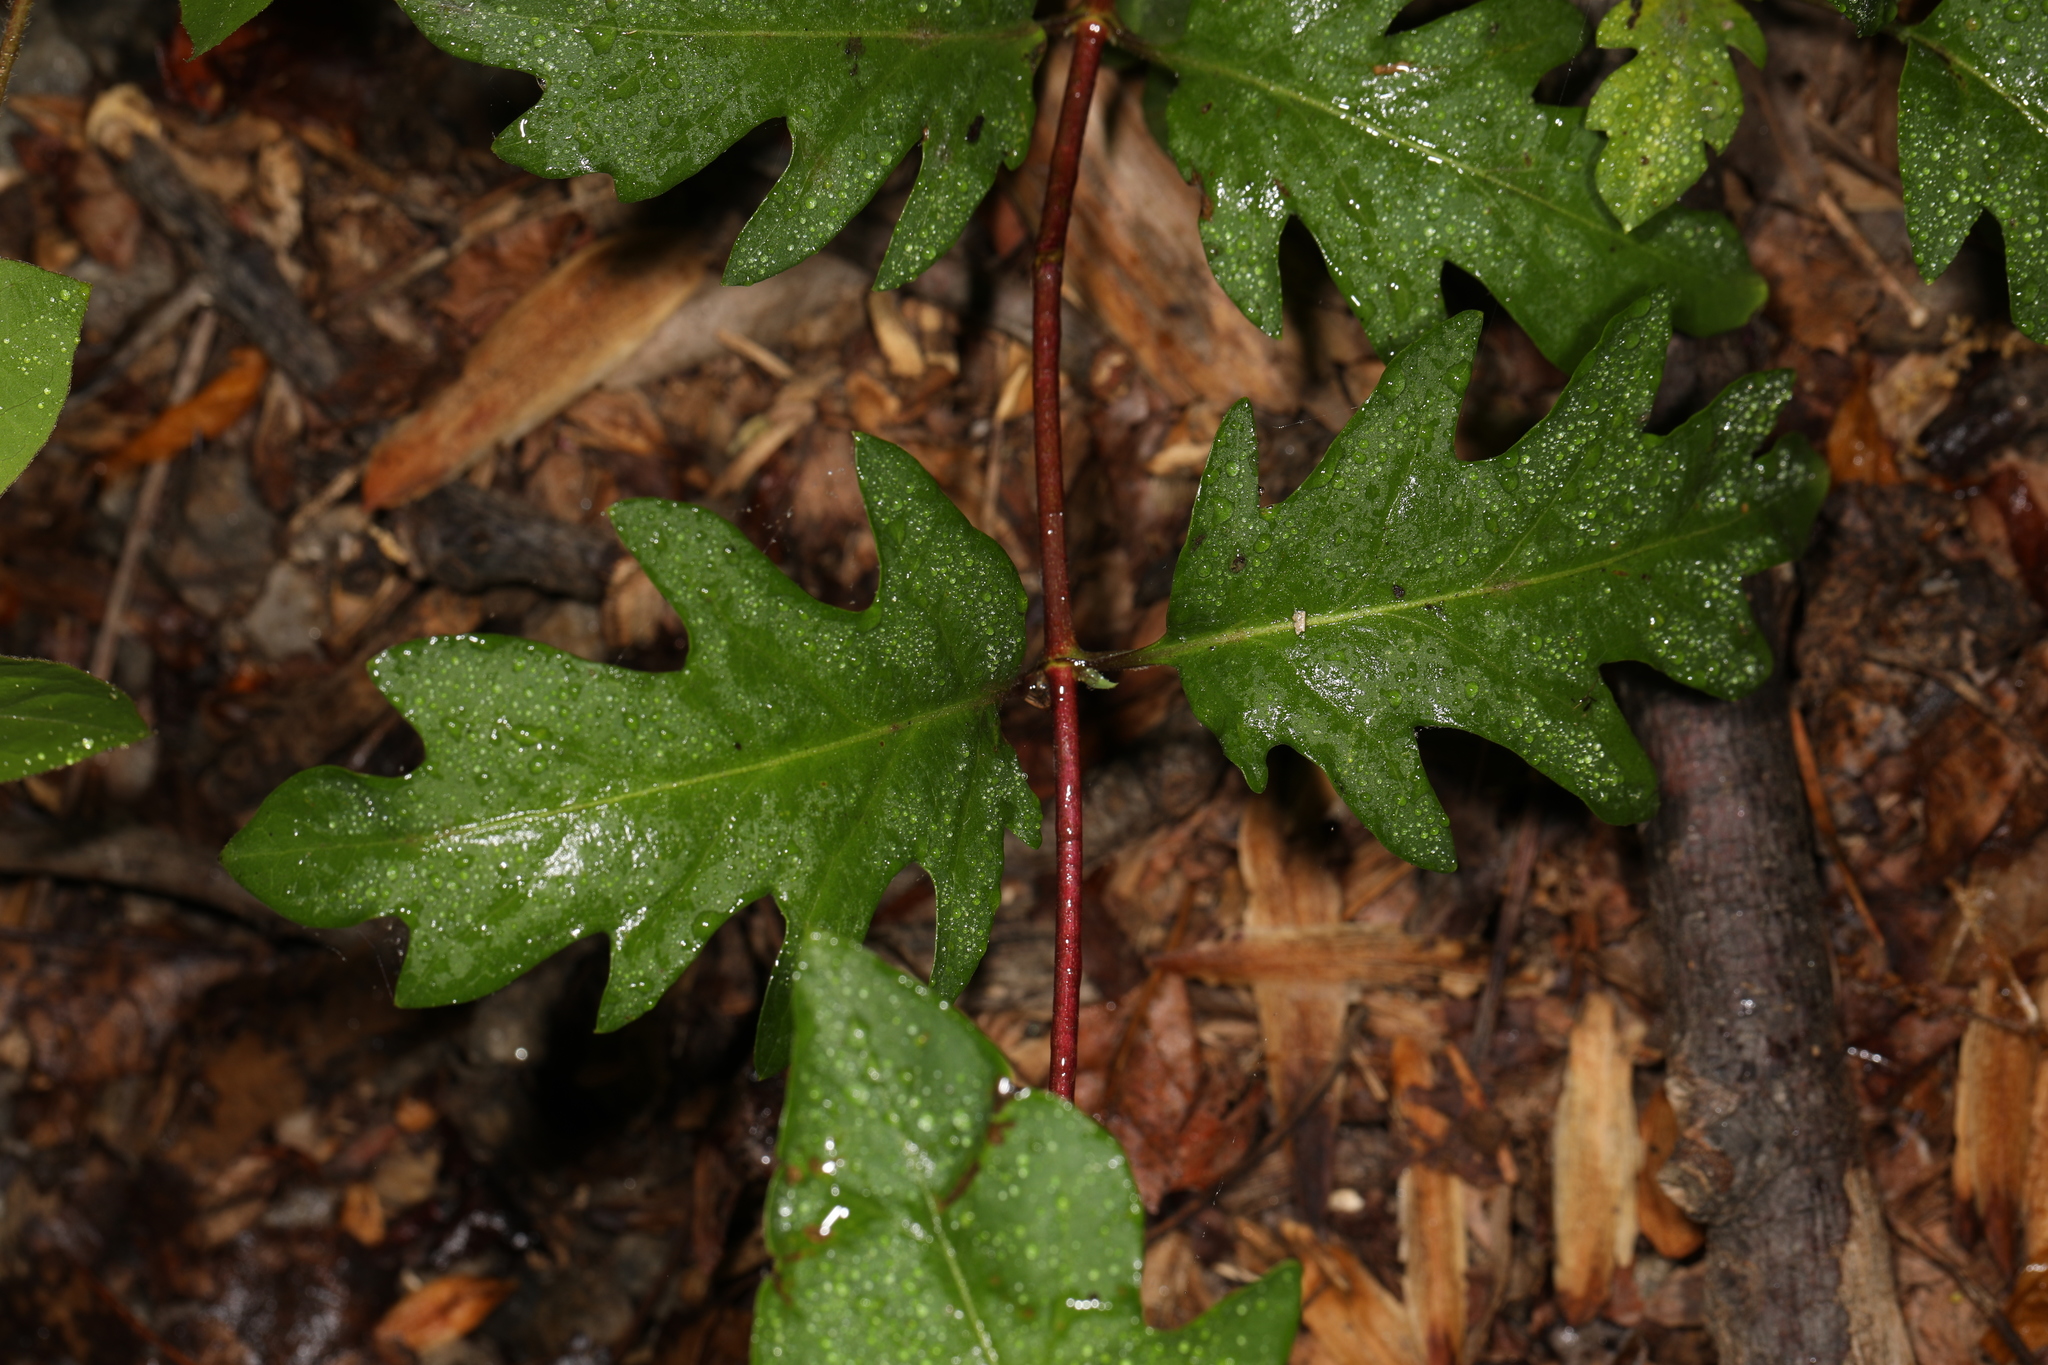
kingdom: Plantae
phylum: Tracheophyta
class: Magnoliopsida
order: Dipsacales
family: Caprifoliaceae
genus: Lonicera
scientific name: Lonicera japonica
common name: Japanese honeysuckle
